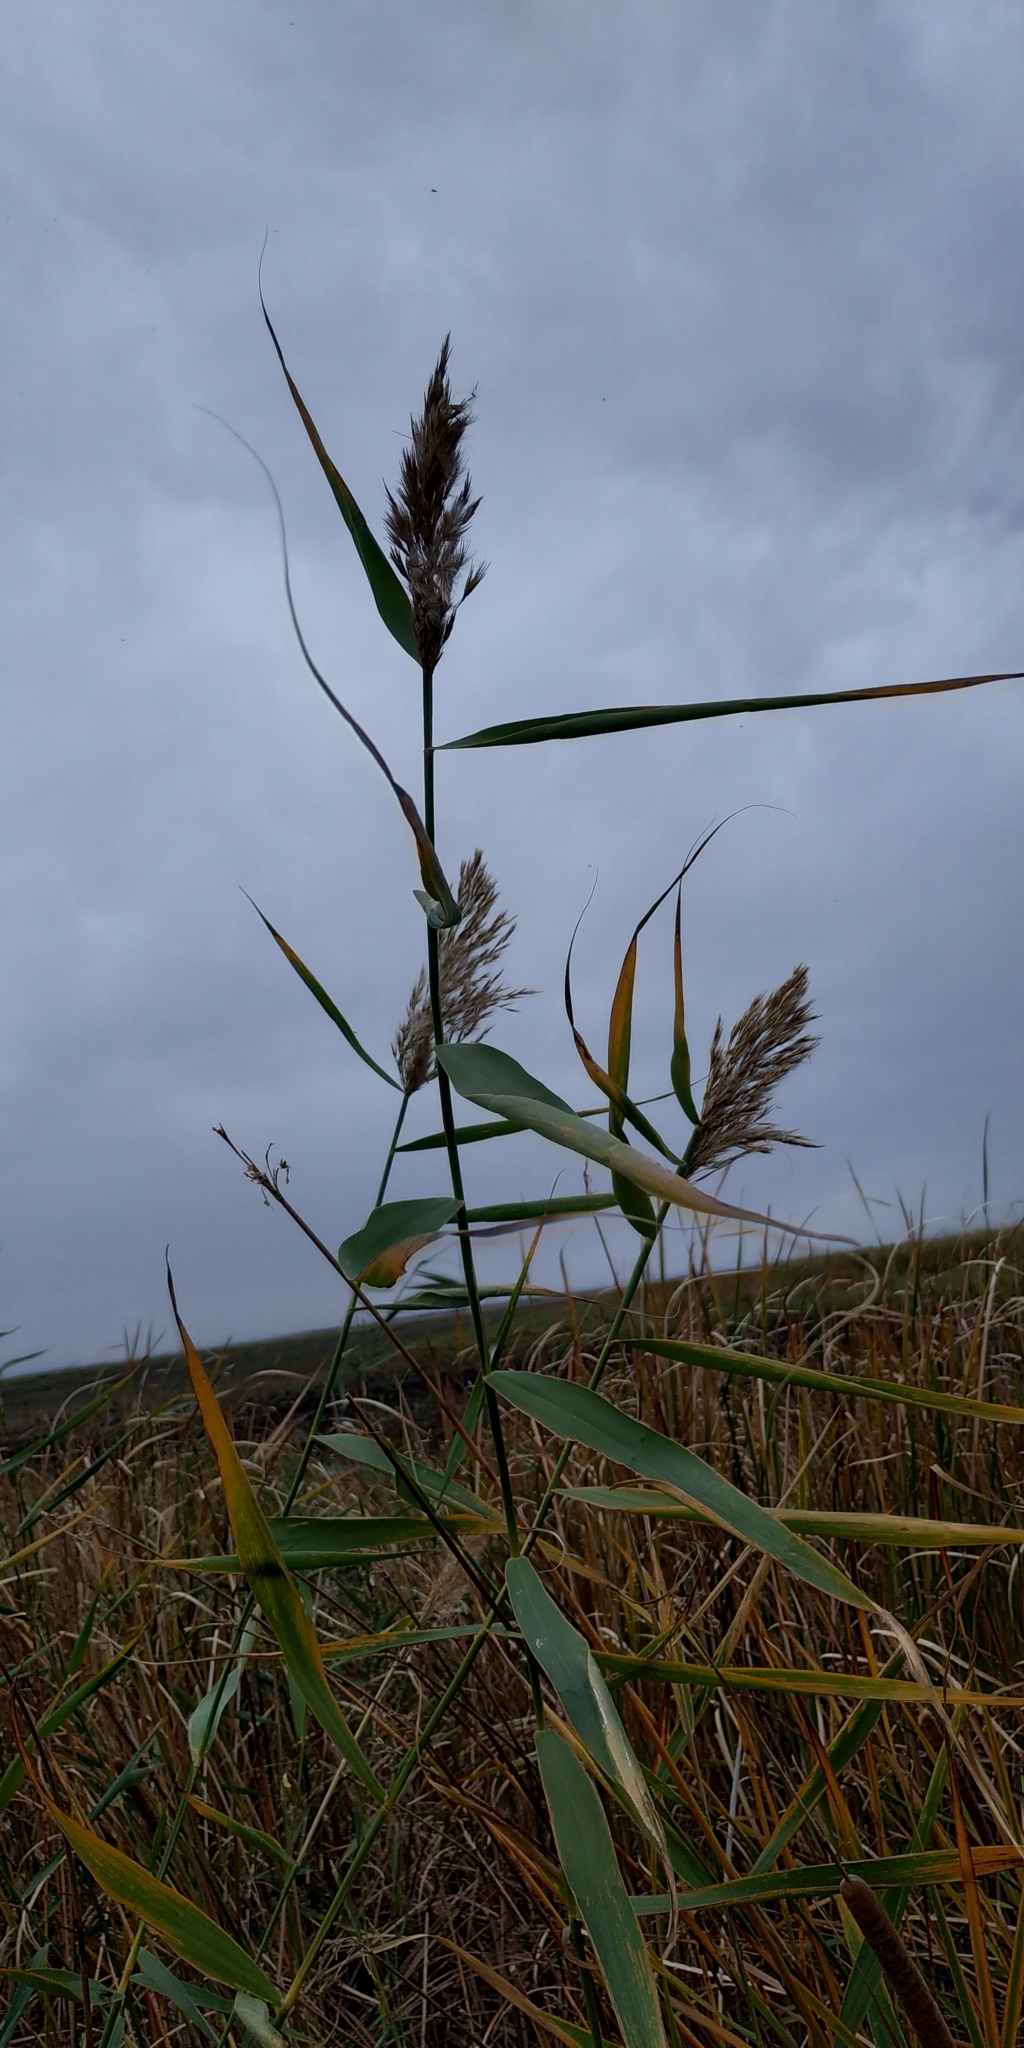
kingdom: Plantae
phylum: Tracheophyta
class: Liliopsida
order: Poales
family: Poaceae
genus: Phragmites
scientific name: Phragmites australis
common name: Common reed
